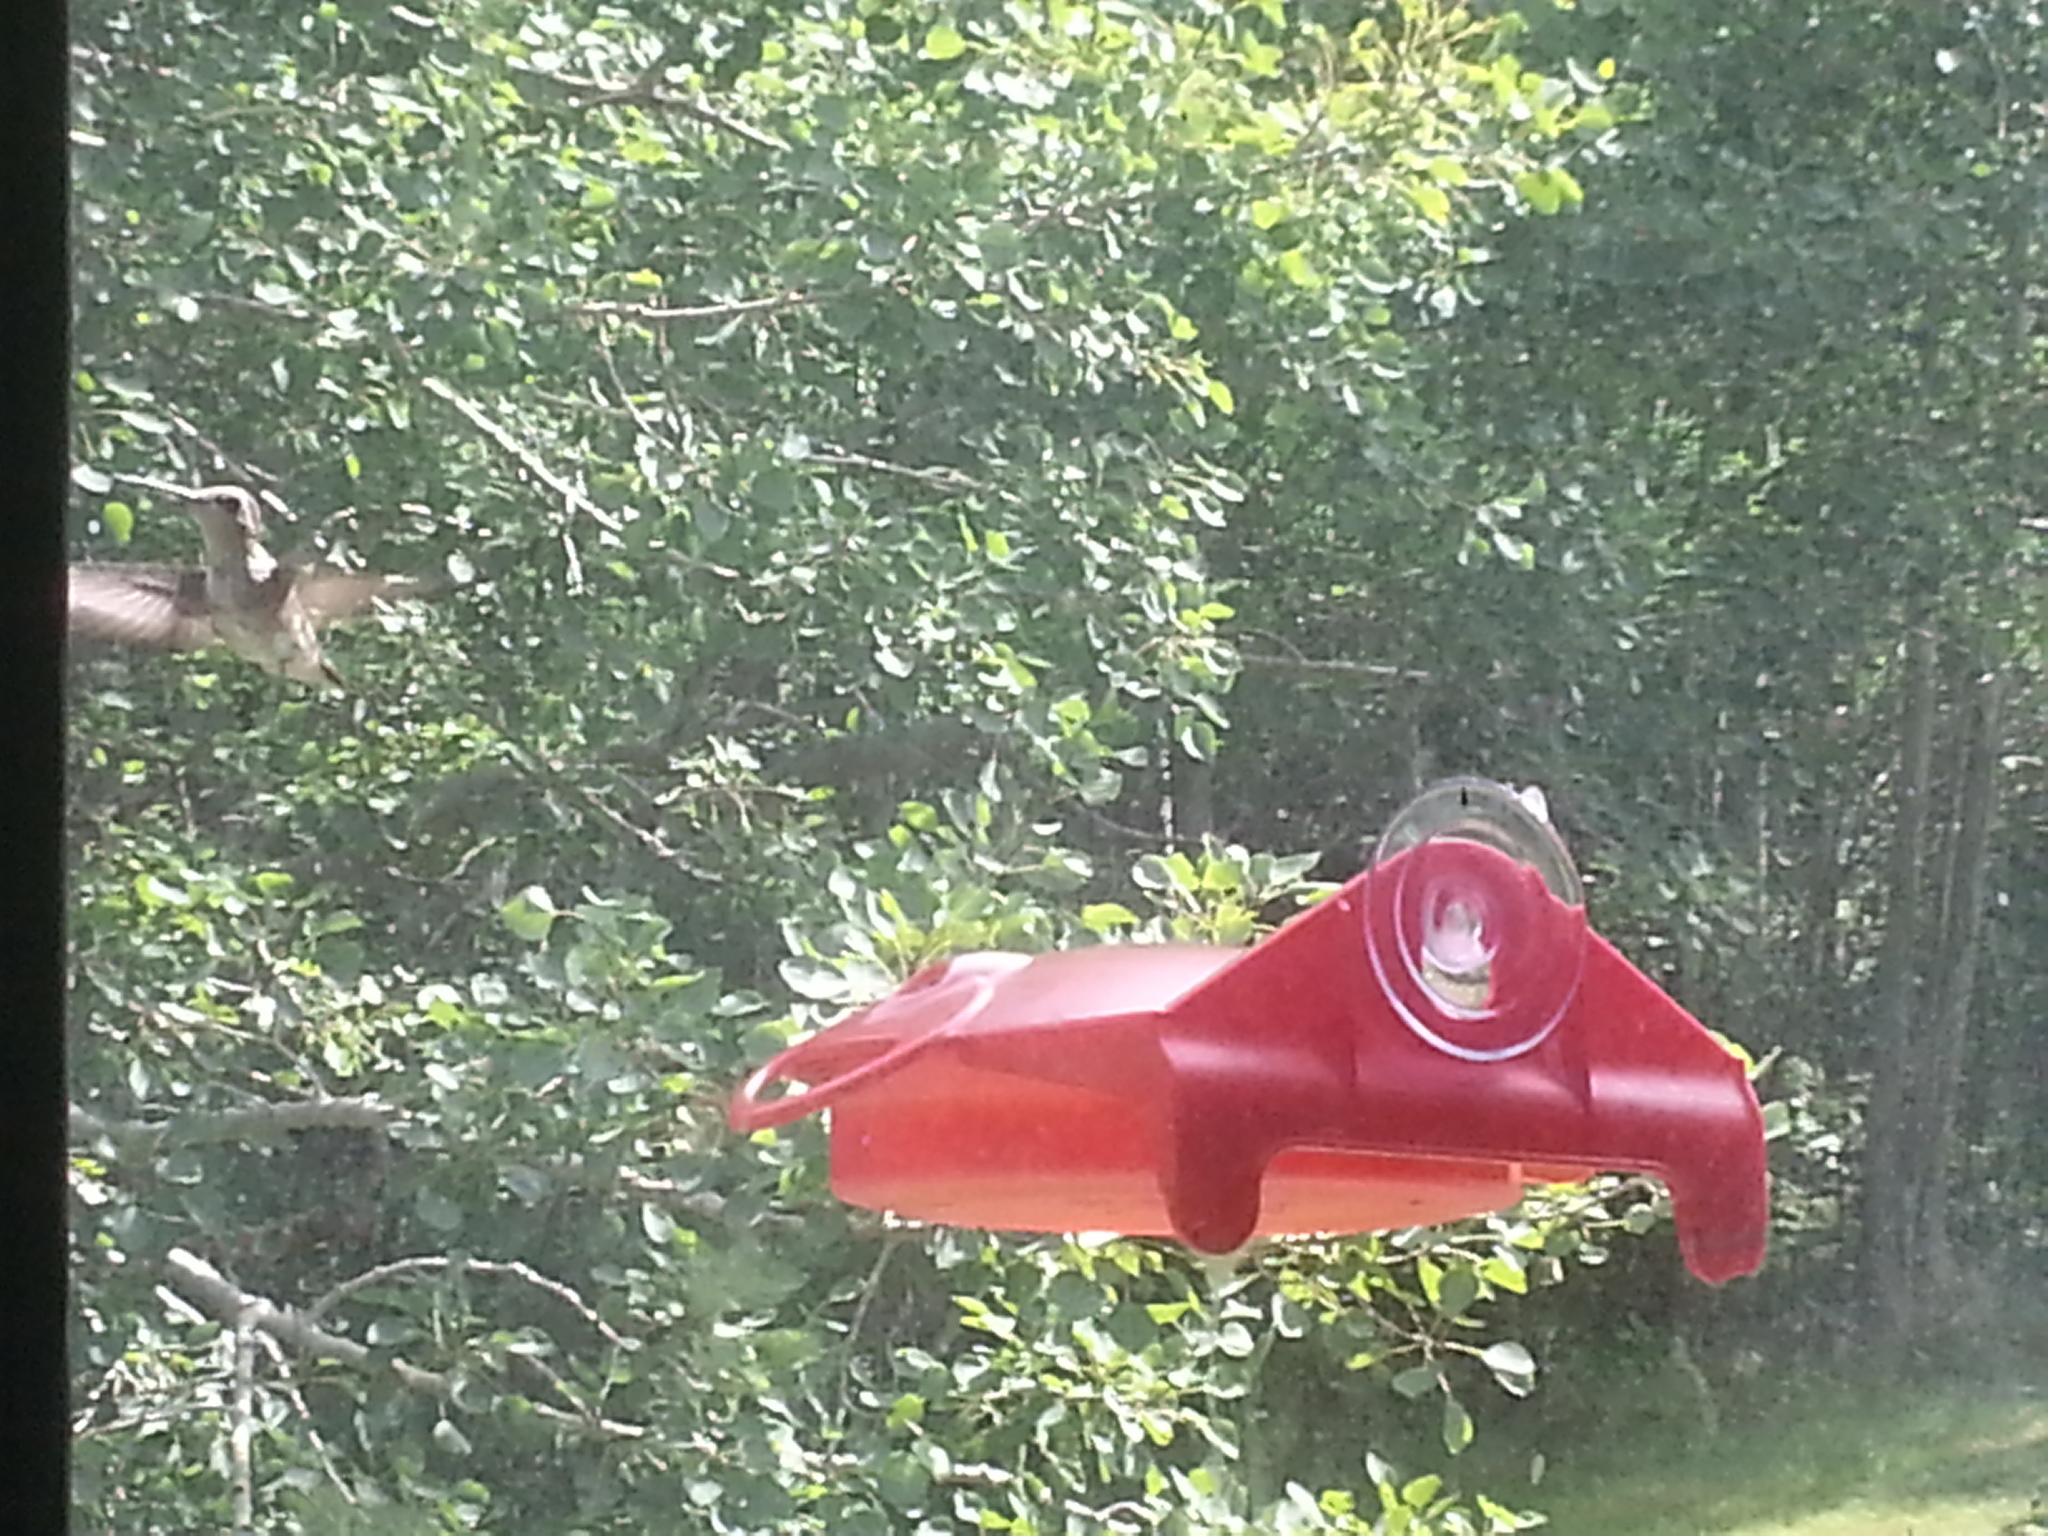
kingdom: Animalia
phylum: Chordata
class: Aves
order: Apodiformes
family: Trochilidae
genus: Archilochus
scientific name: Archilochus colubris
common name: Ruby-throated hummingbird
